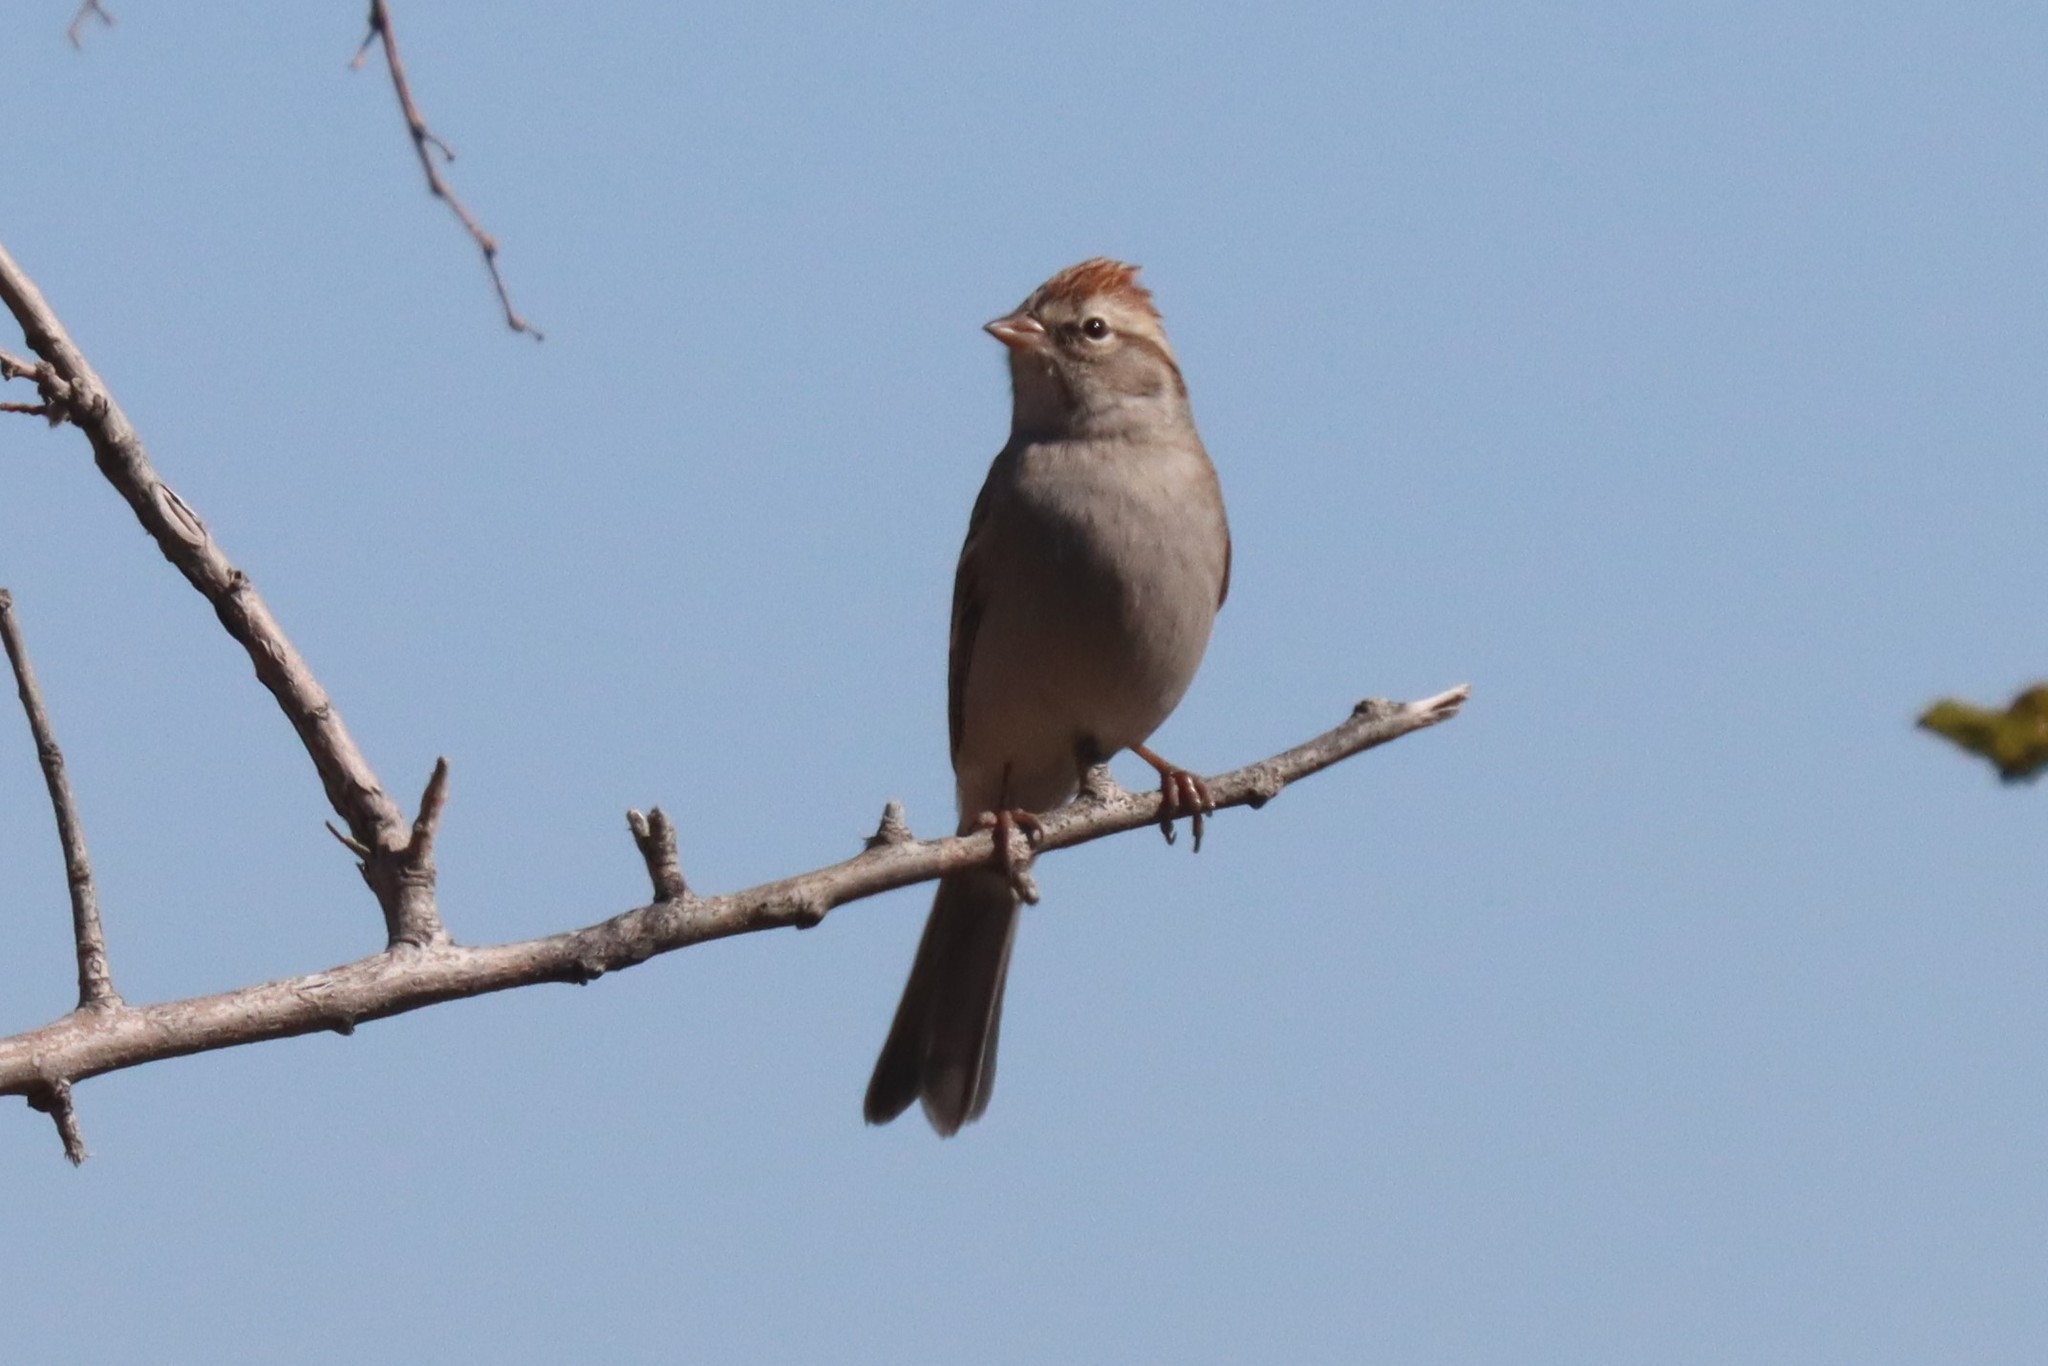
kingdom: Animalia
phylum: Chordata
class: Aves
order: Passeriformes
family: Passerellidae
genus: Spizella
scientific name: Spizella passerina
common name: Chipping sparrow
